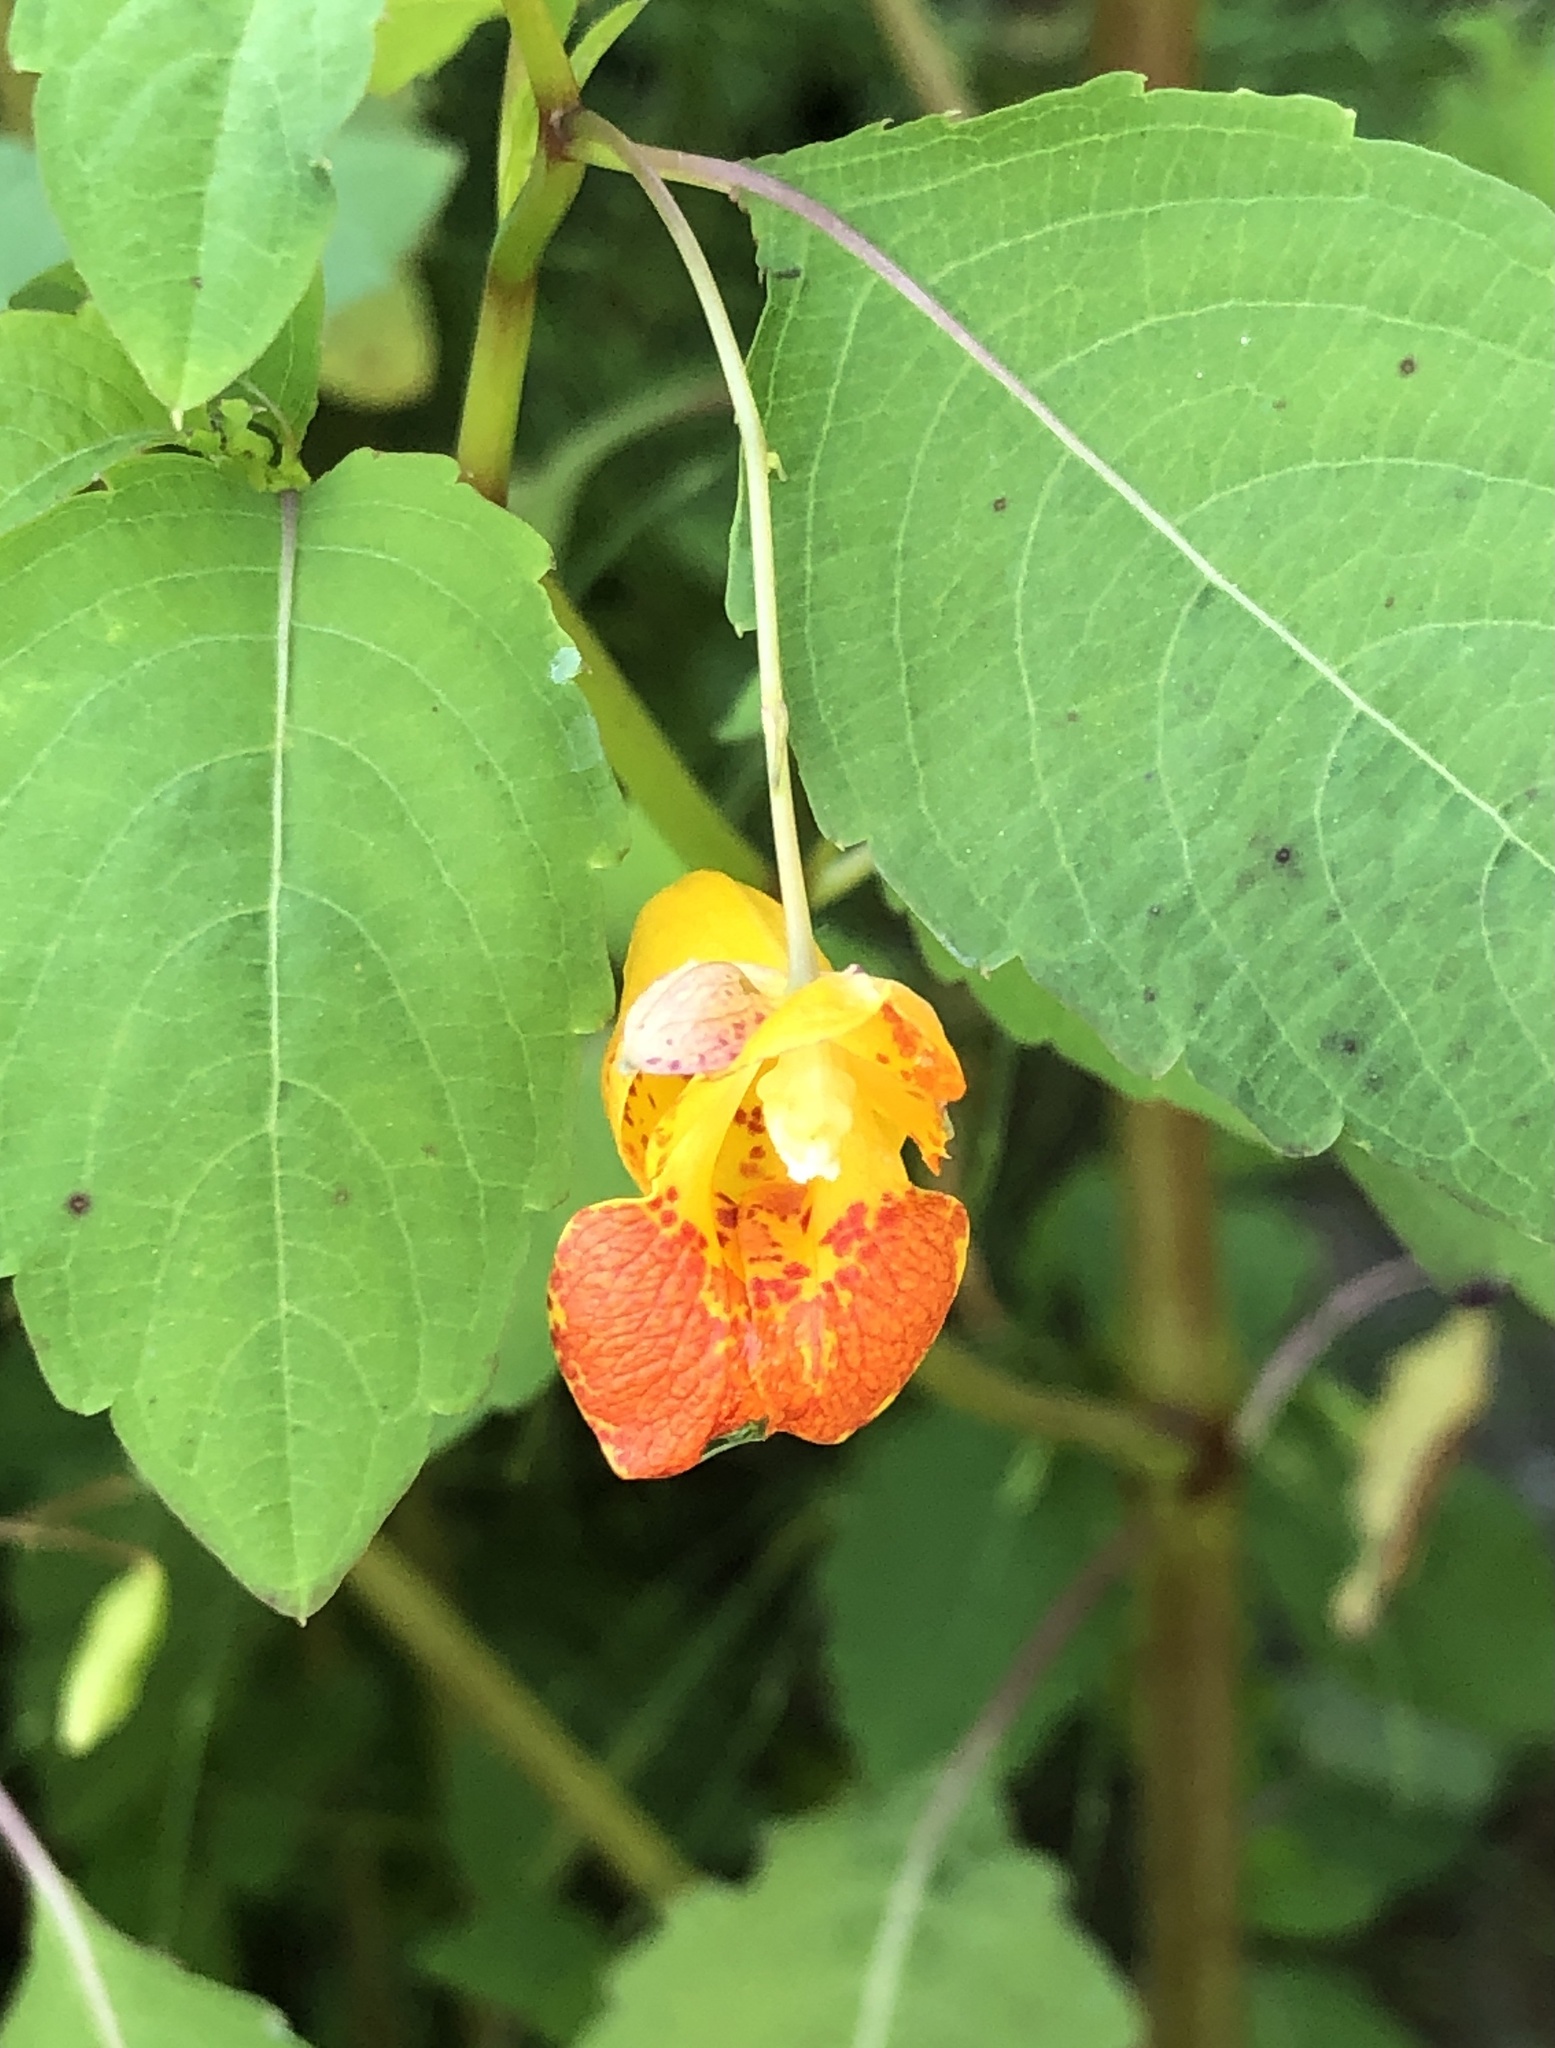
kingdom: Plantae
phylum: Tracheophyta
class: Magnoliopsida
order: Ericales
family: Balsaminaceae
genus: Impatiens
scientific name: Impatiens capensis
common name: Orange balsam
